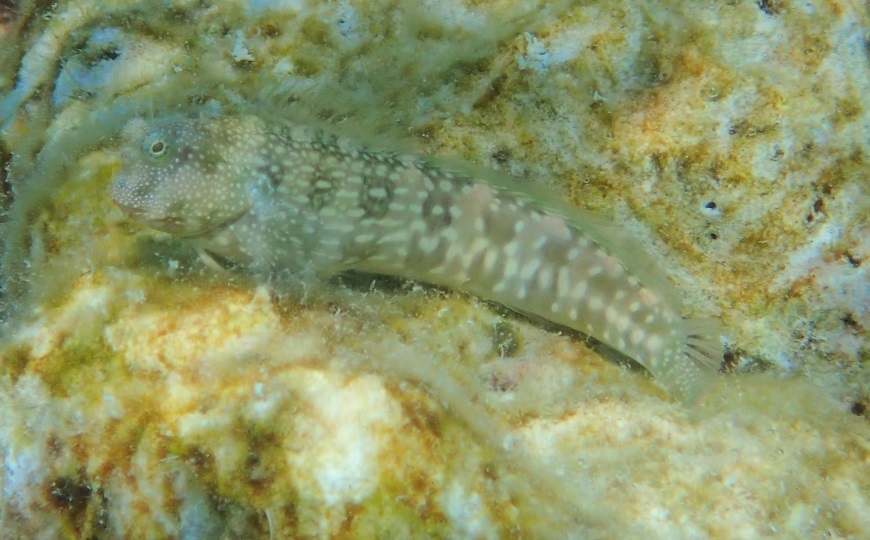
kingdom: Animalia
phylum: Chordata
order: Perciformes
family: Blenniidae
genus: Salarias
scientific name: Salarias alboguttatus
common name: White-spotted blenny
